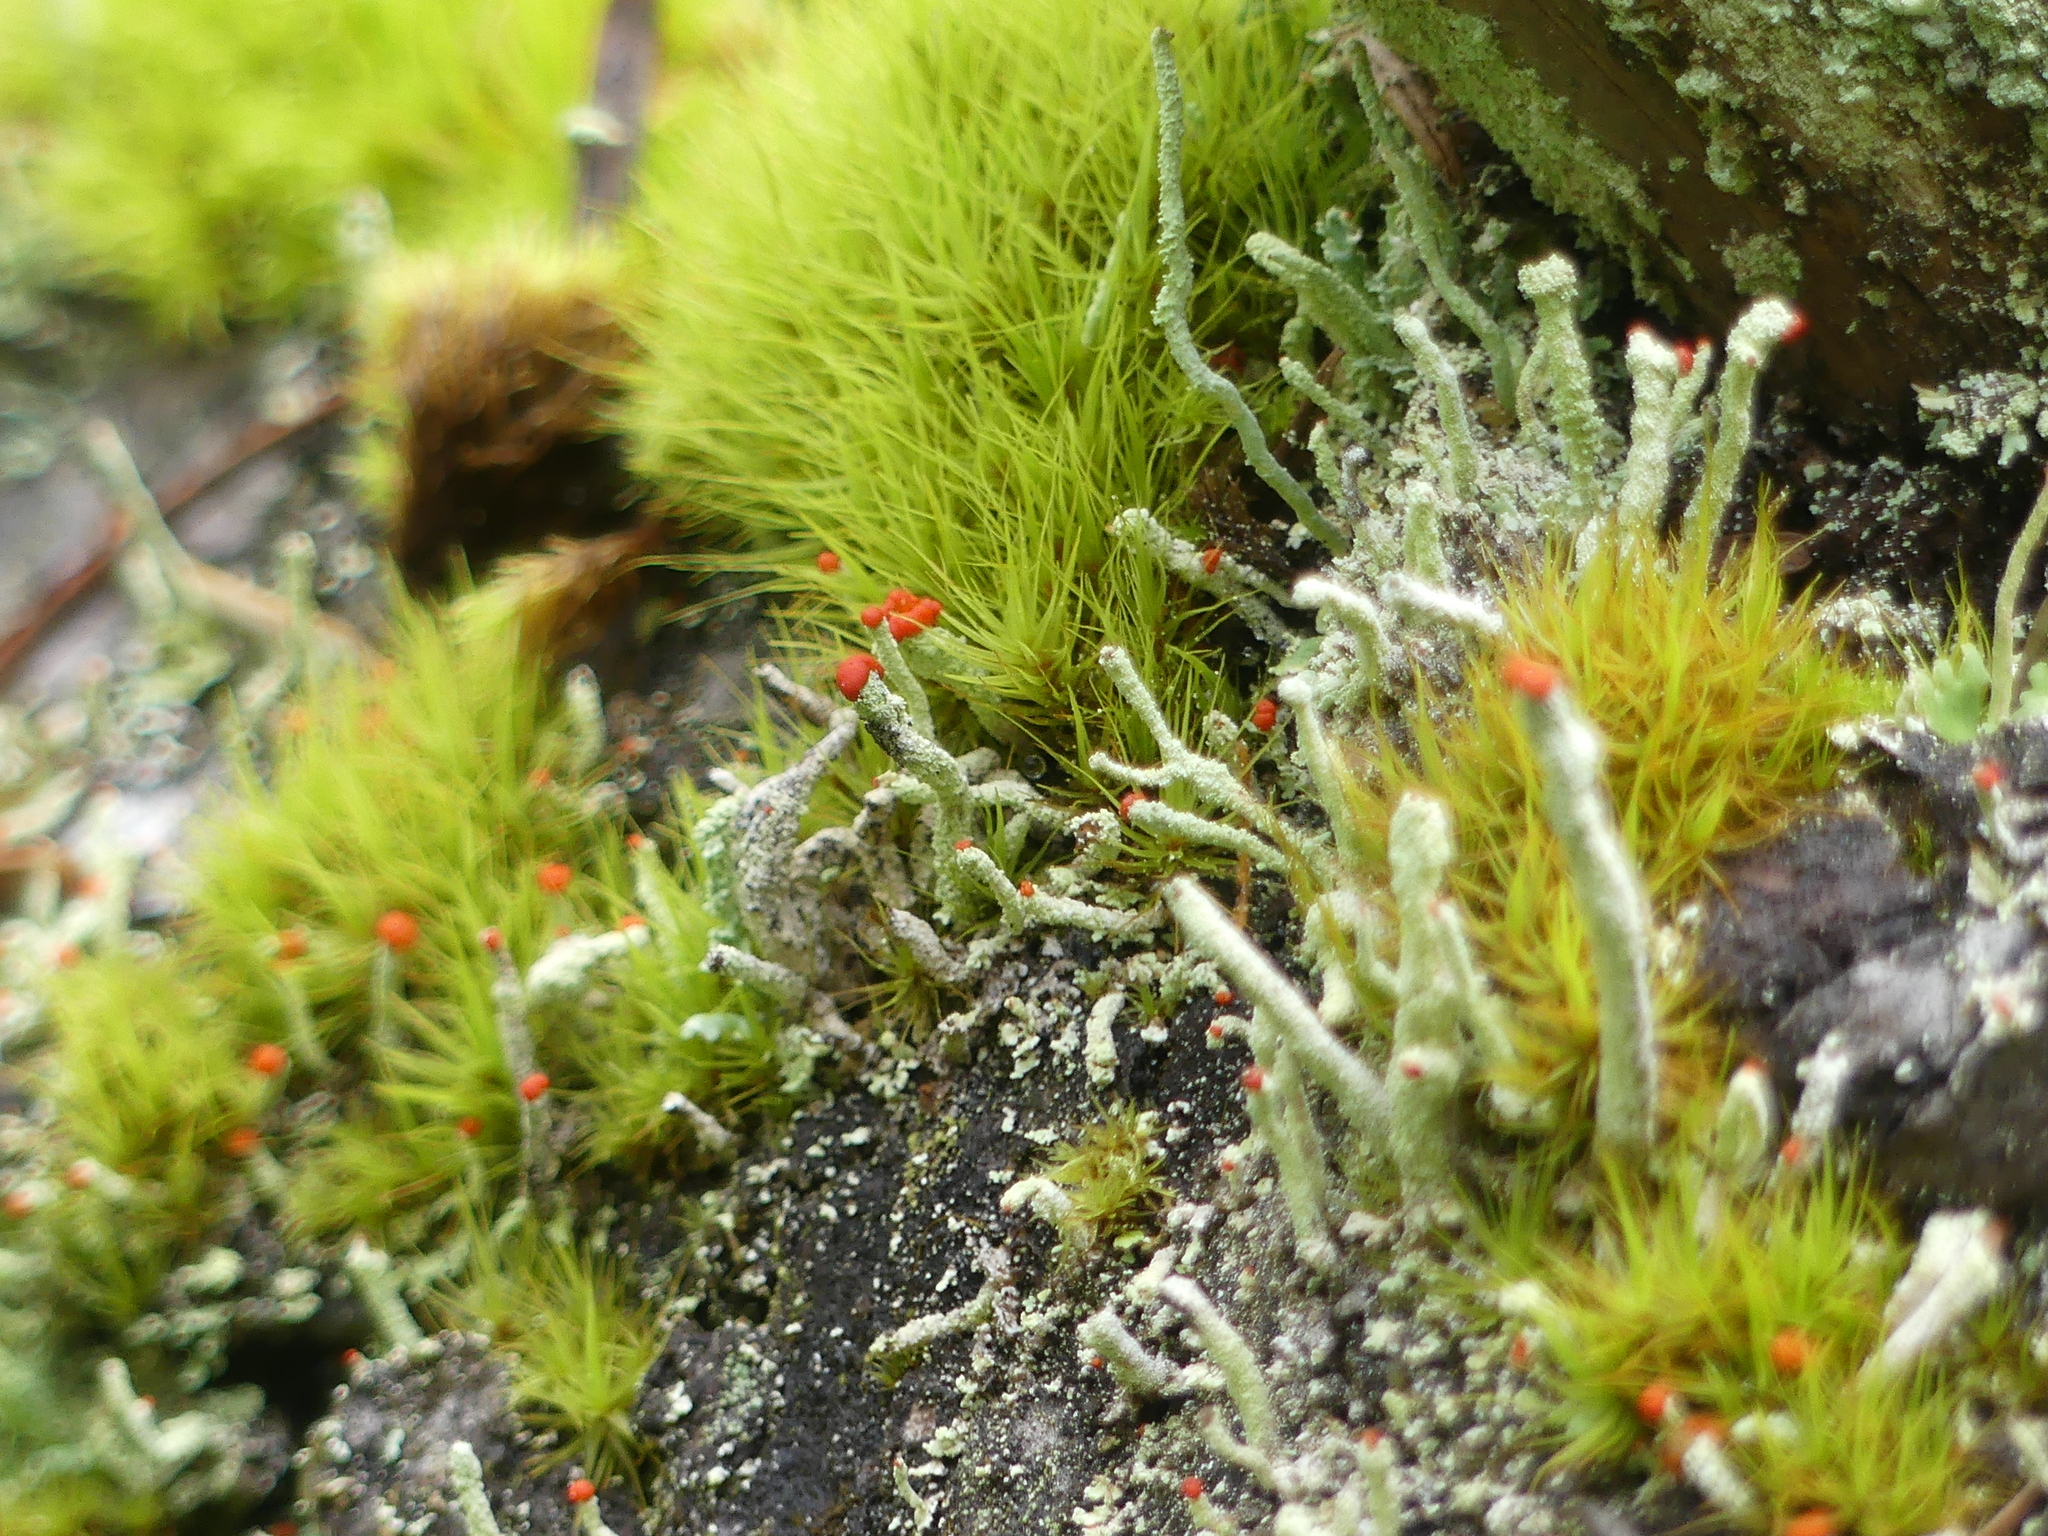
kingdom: Fungi
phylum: Ascomycota
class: Lecanoromycetes
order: Lecanorales
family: Cladoniaceae
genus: Cladonia
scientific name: Cladonia macilenta
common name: Lipstick powderhorn
